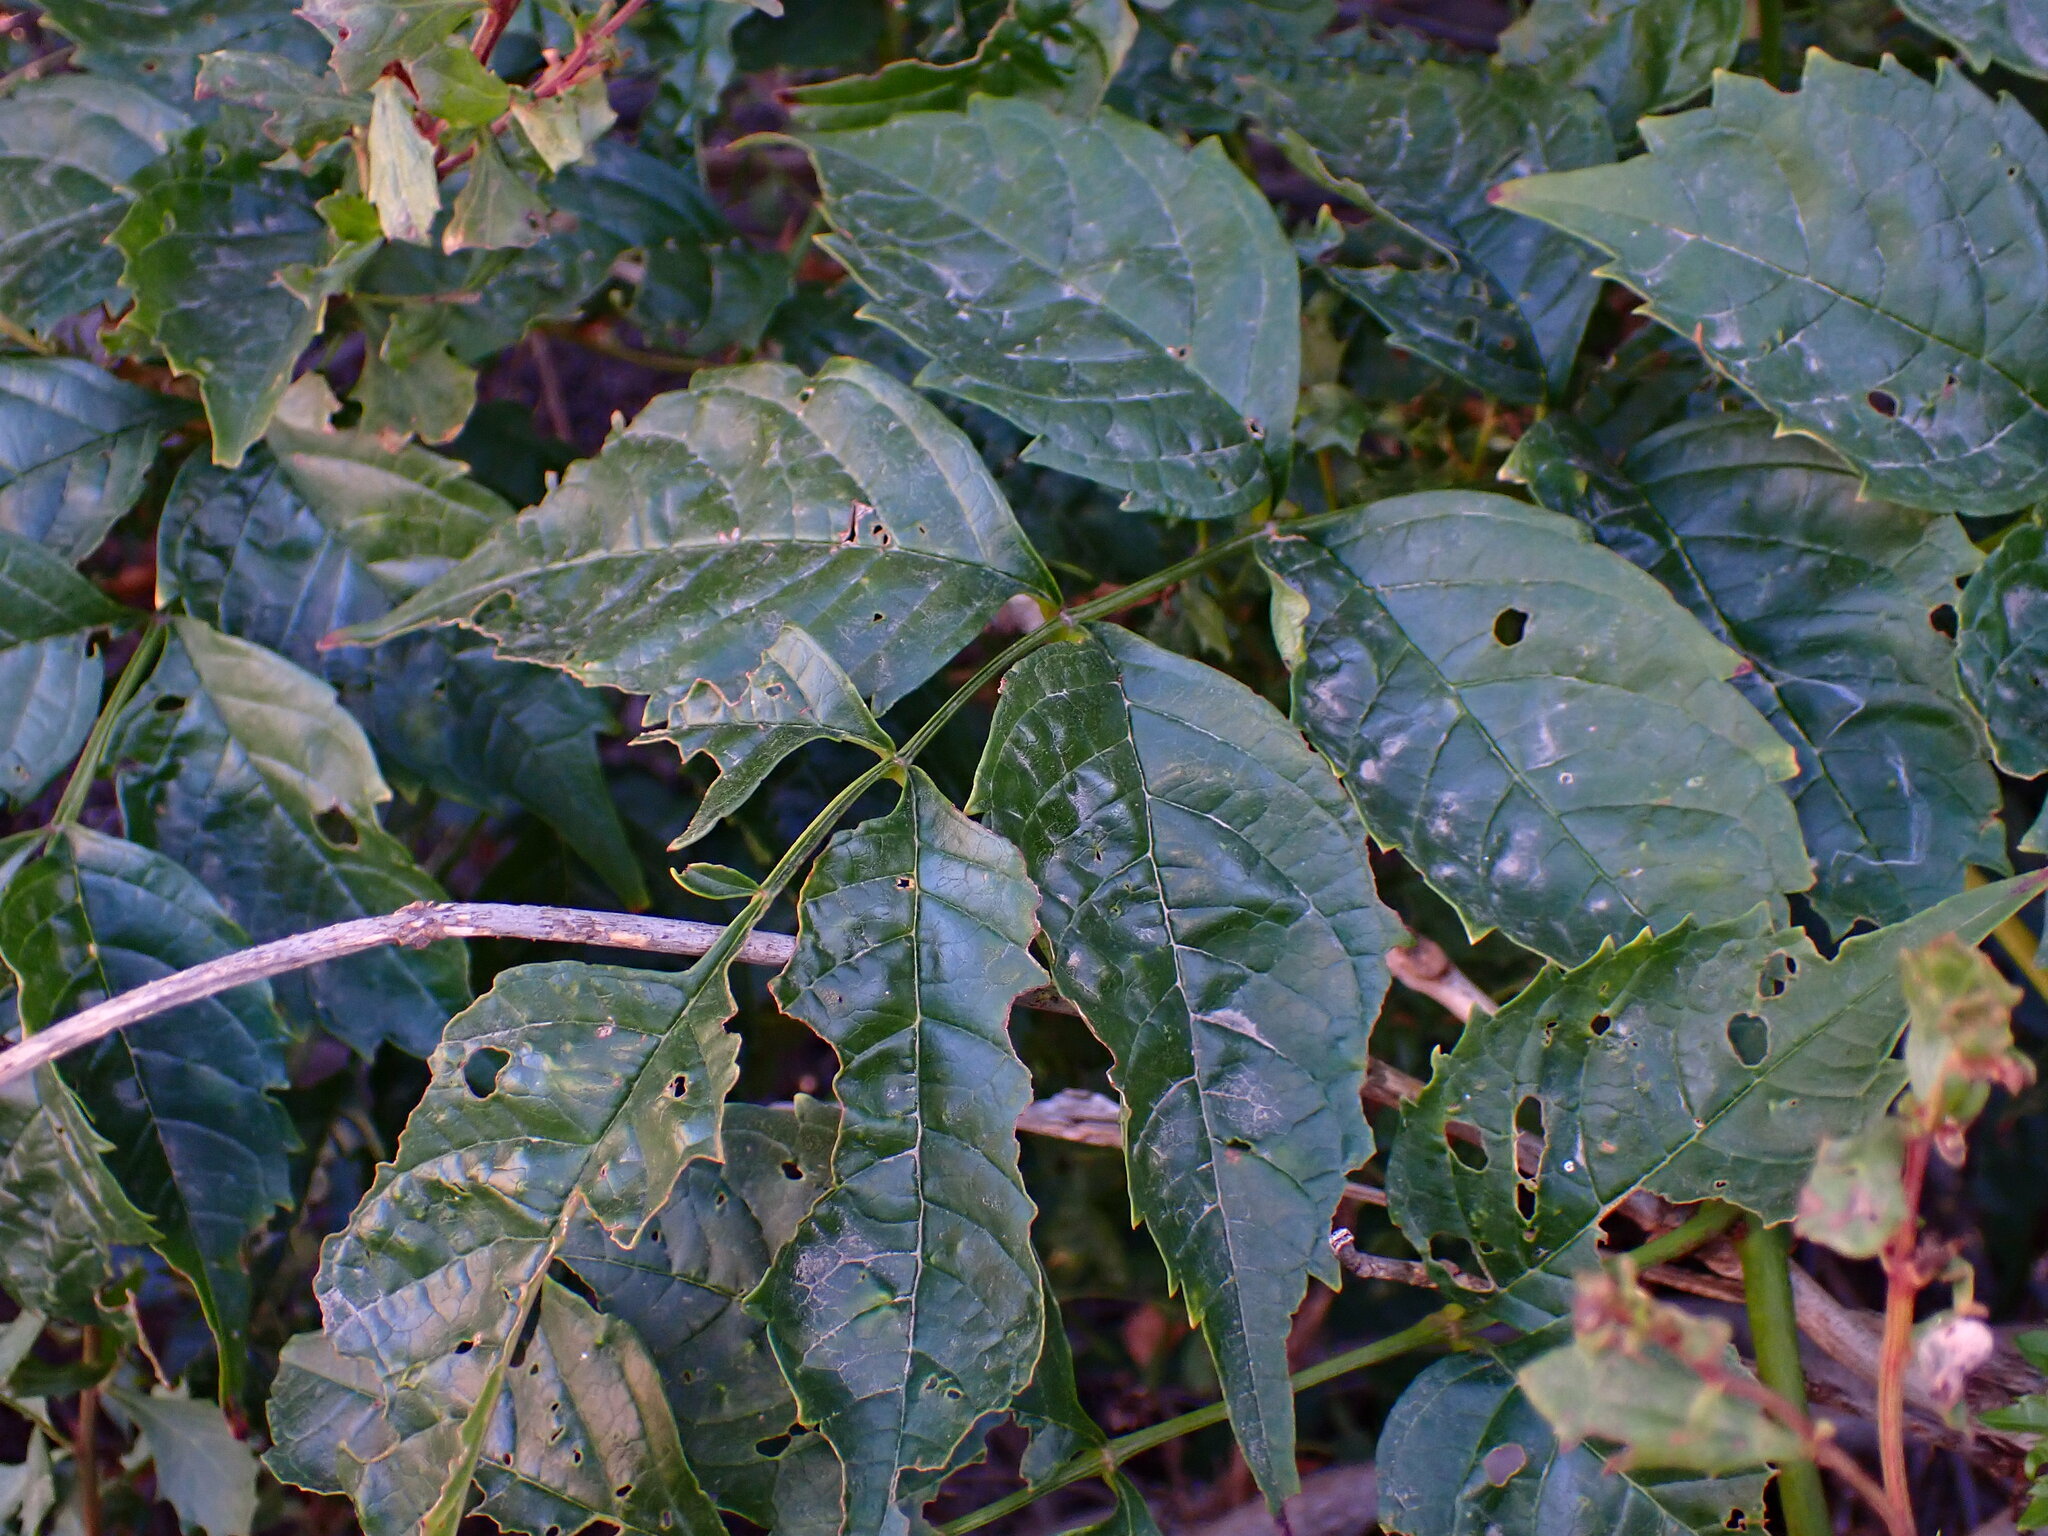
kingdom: Plantae
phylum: Tracheophyta
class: Magnoliopsida
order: Lamiales
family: Bignoniaceae
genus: Campsis
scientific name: Campsis radicans
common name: Trumpet-creeper
